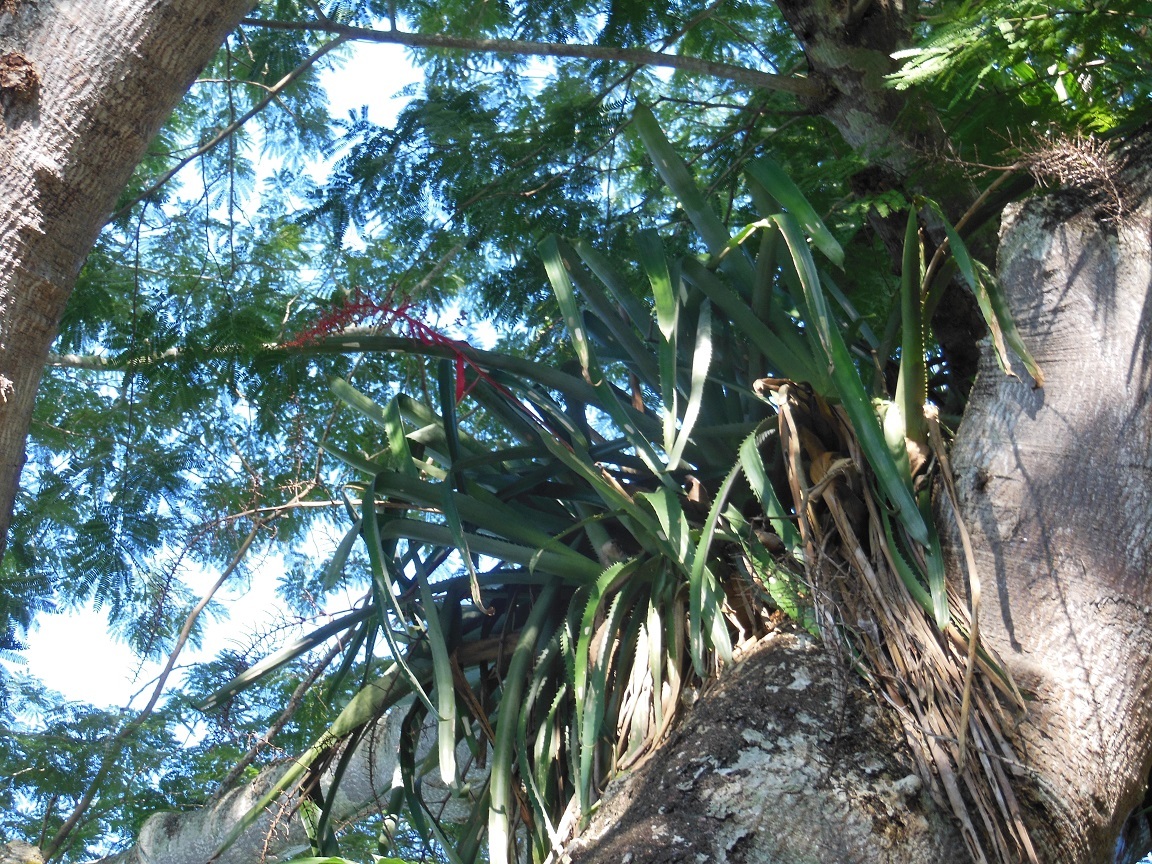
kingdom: Plantae
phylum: Tracheophyta
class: Liliopsida
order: Poales
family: Bromeliaceae
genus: Aechmea
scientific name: Aechmea bracteata
